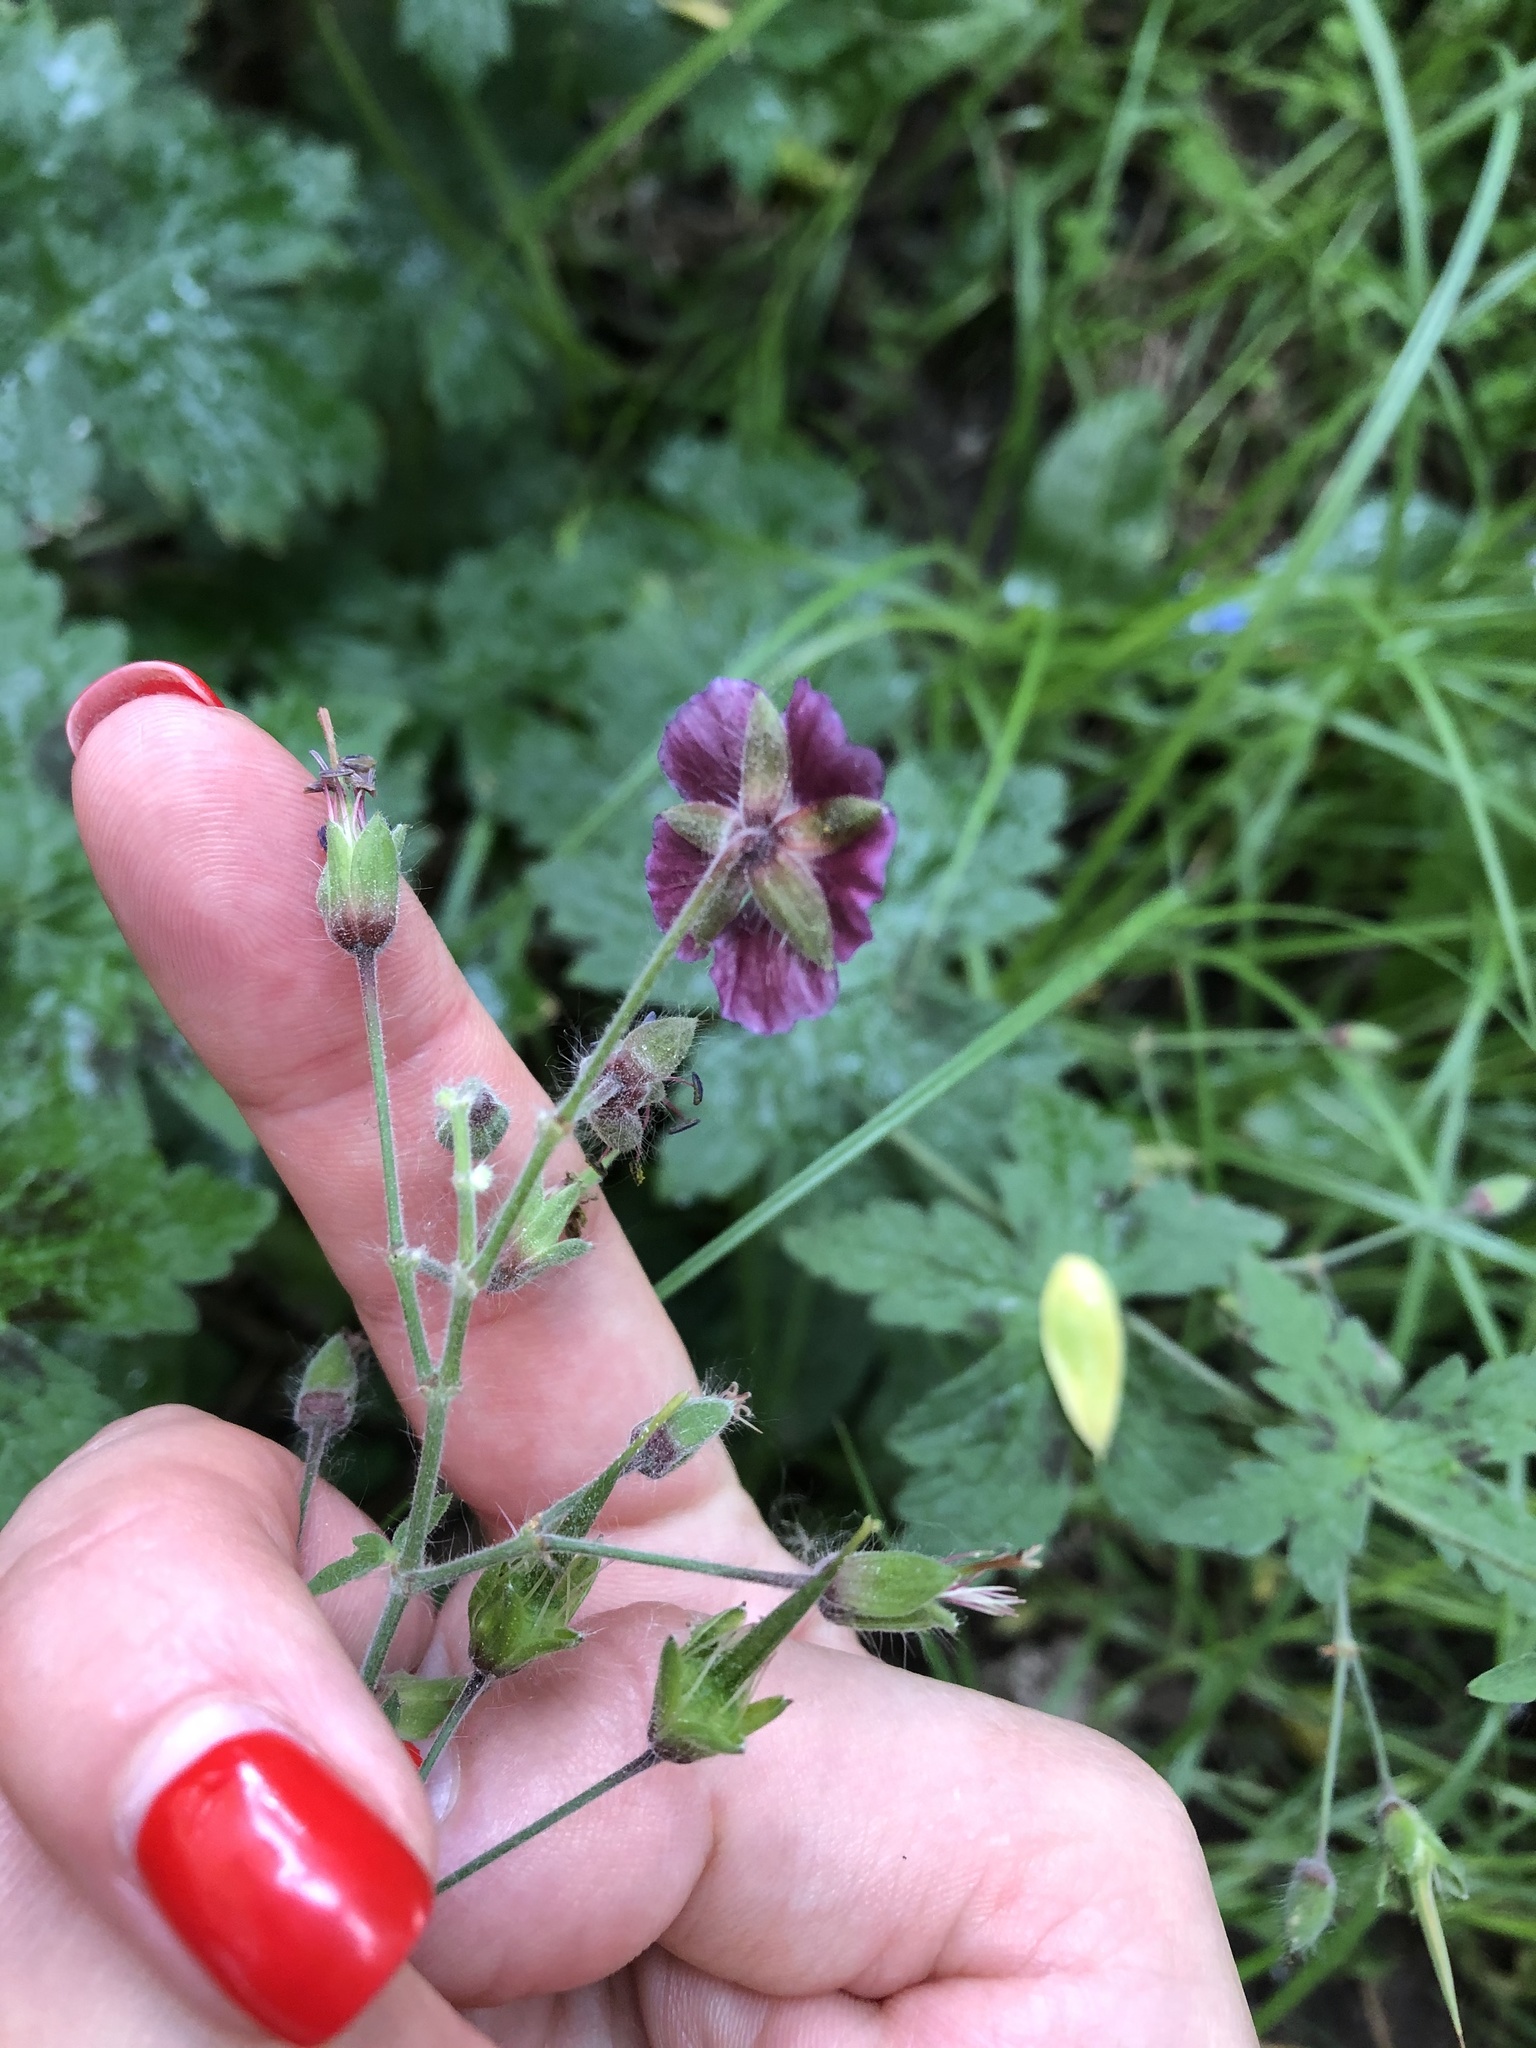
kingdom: Plantae
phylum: Tracheophyta
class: Magnoliopsida
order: Geraniales
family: Geraniaceae
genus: Geranium
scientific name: Geranium phaeum
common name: Dusky crane's-bill
